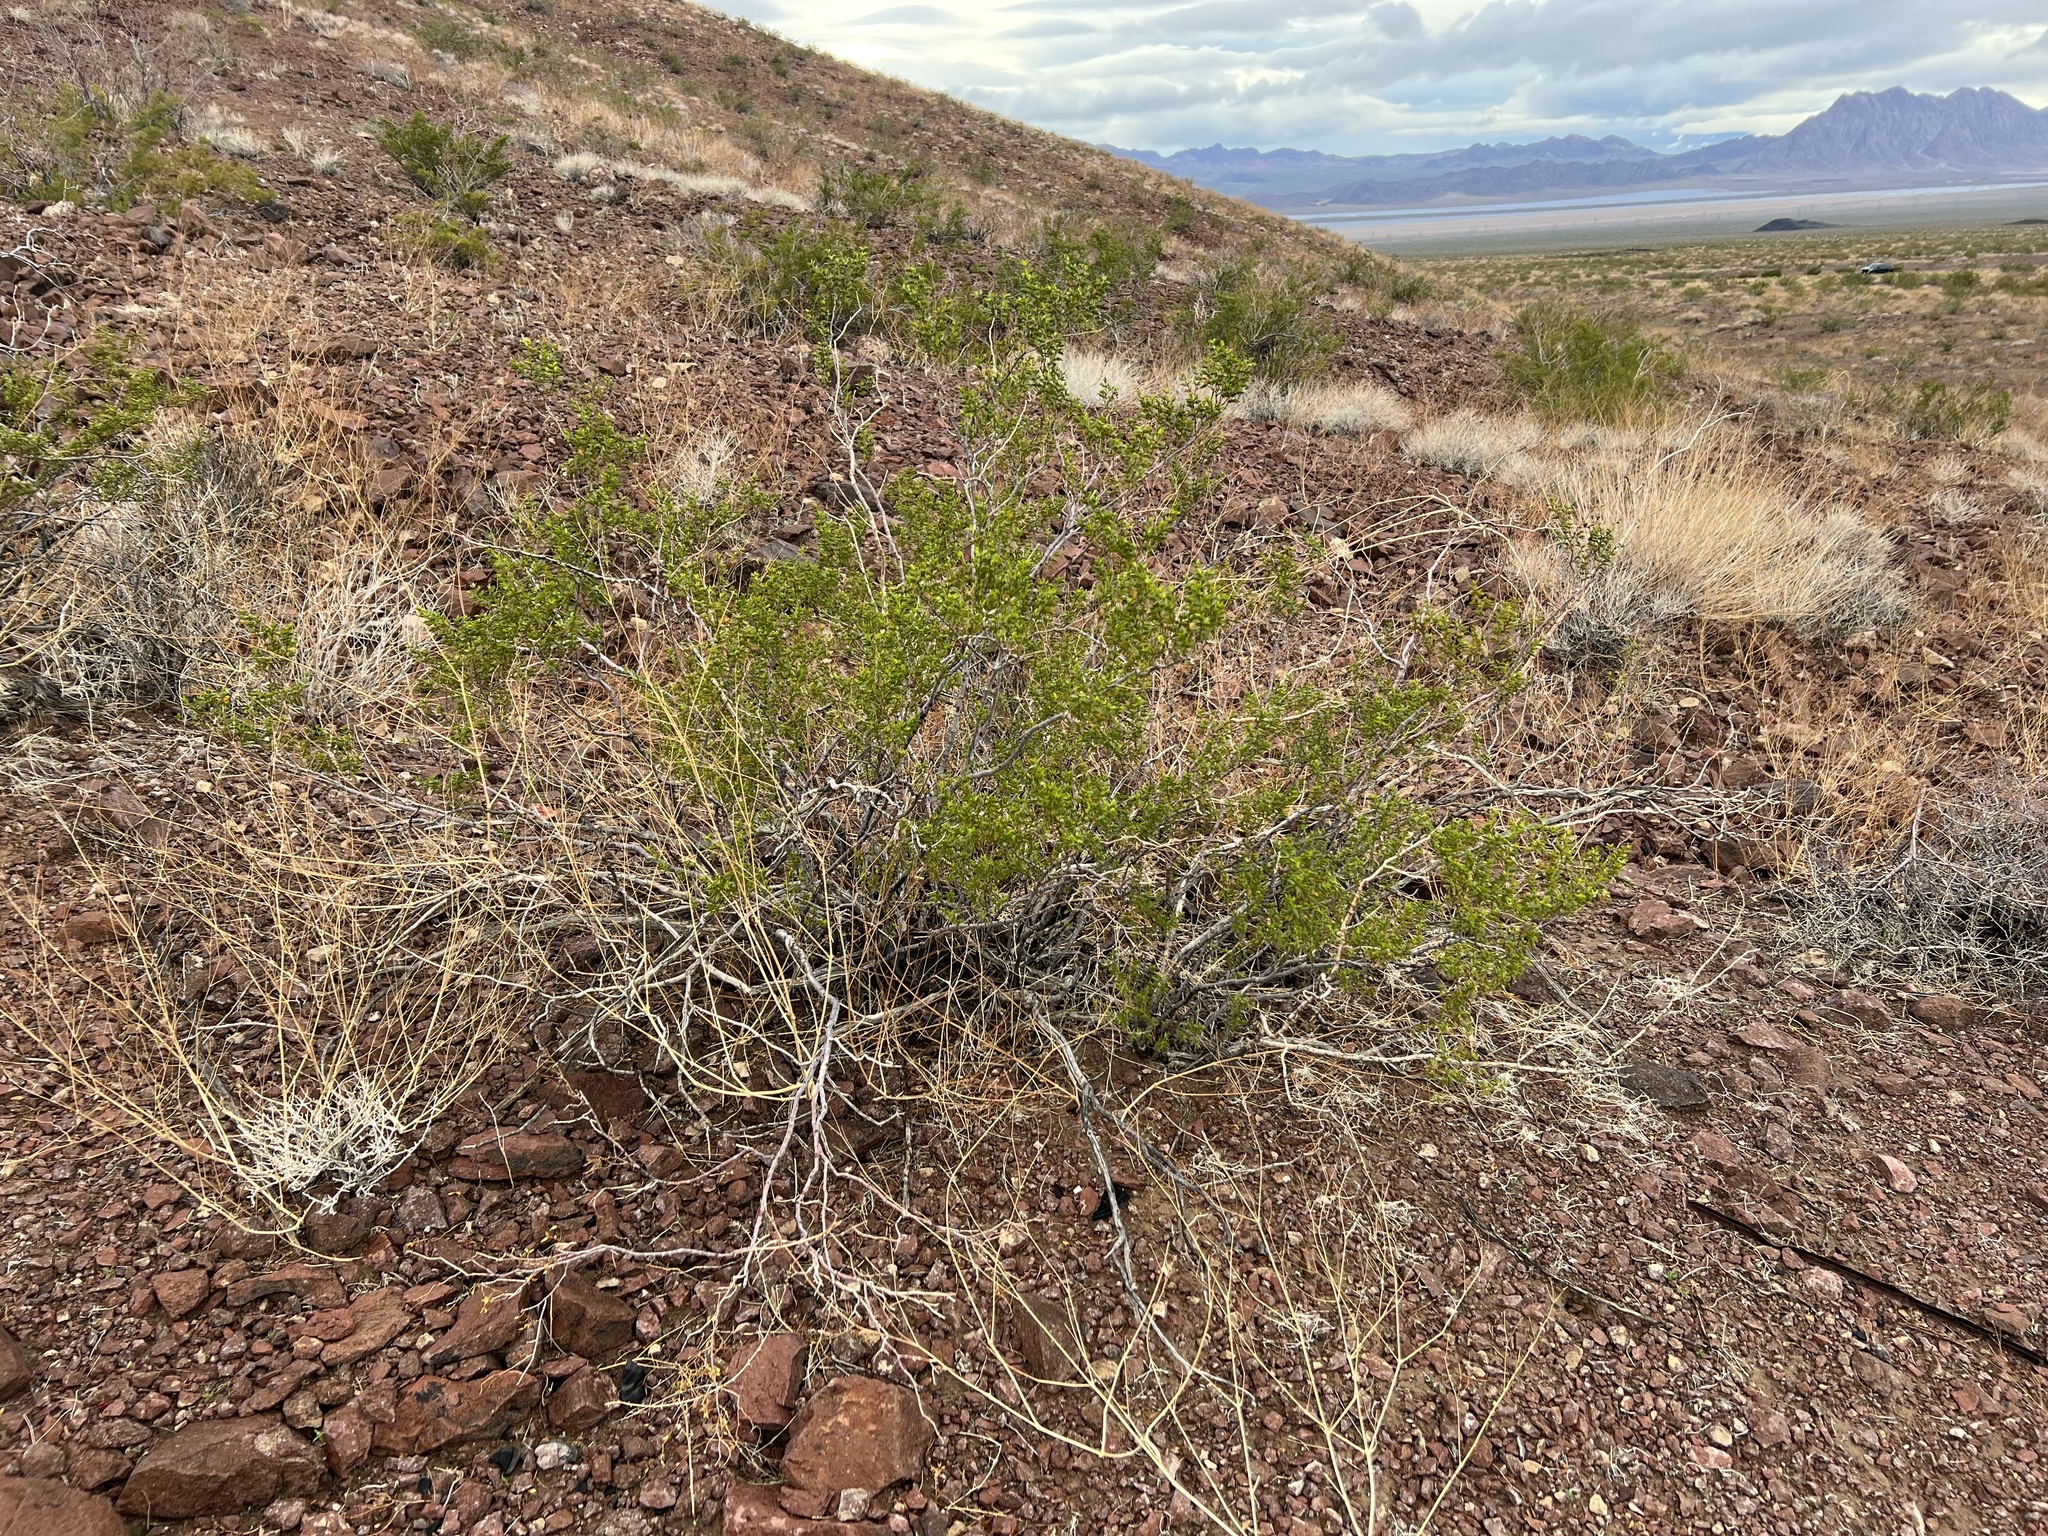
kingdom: Plantae
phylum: Tracheophyta
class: Magnoliopsida
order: Zygophyllales
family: Zygophyllaceae
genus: Larrea
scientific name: Larrea tridentata
